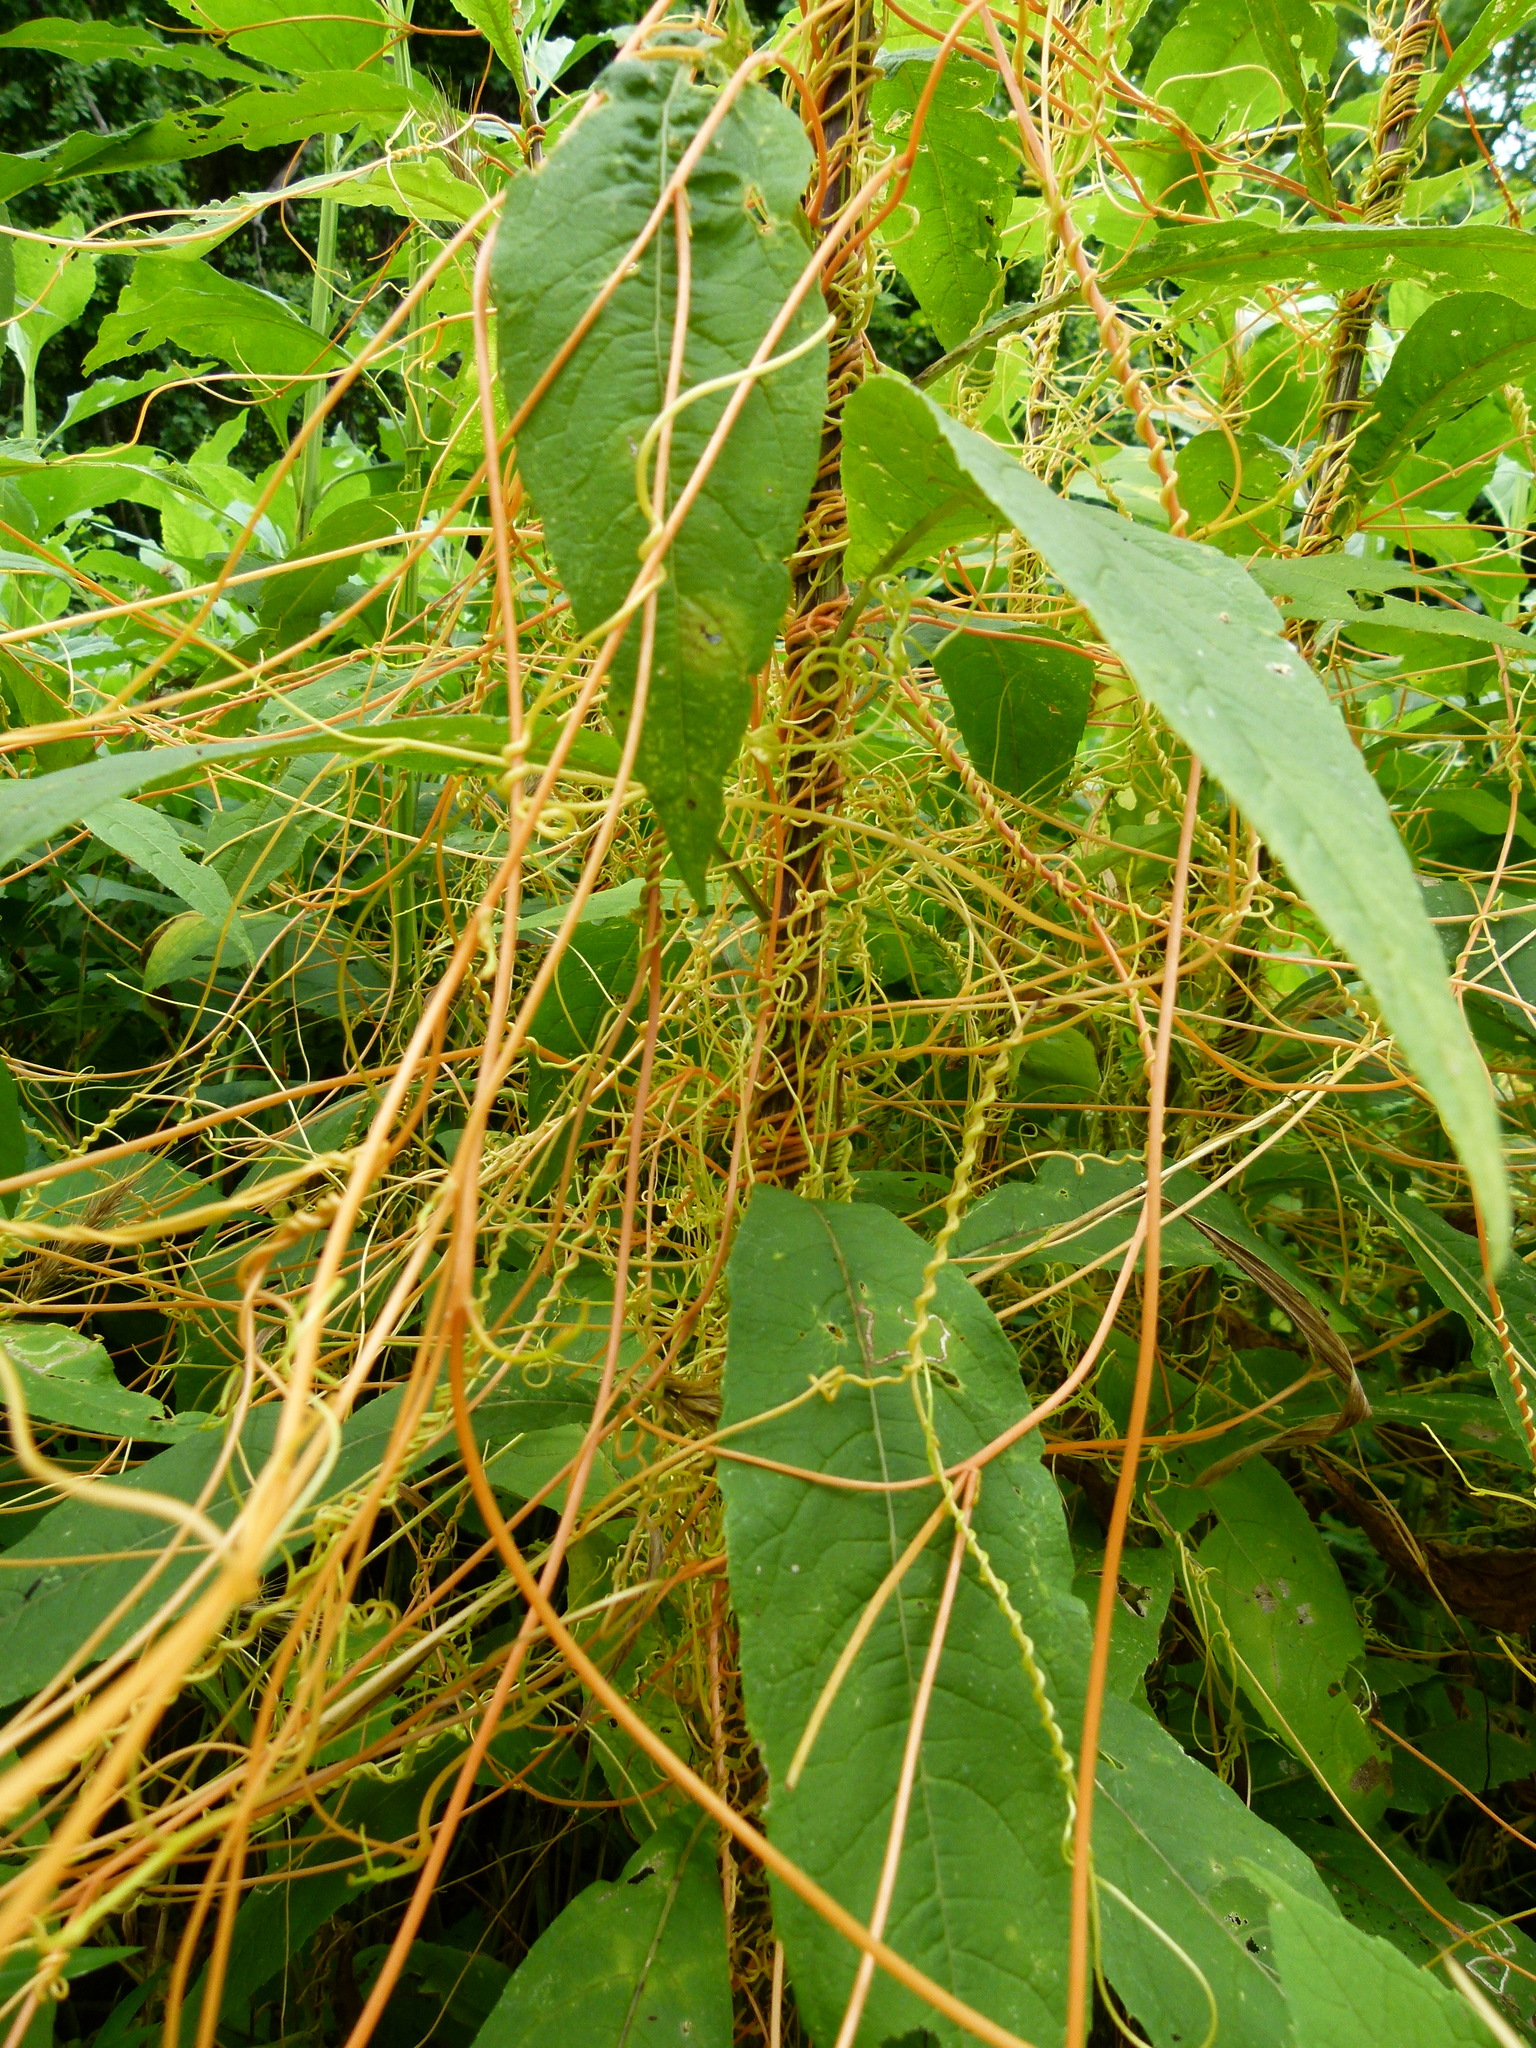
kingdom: Plantae
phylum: Tracheophyta
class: Magnoliopsida
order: Solanales
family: Convolvulaceae
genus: Cuscuta
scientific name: Cuscuta gronovii
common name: Common dodder
